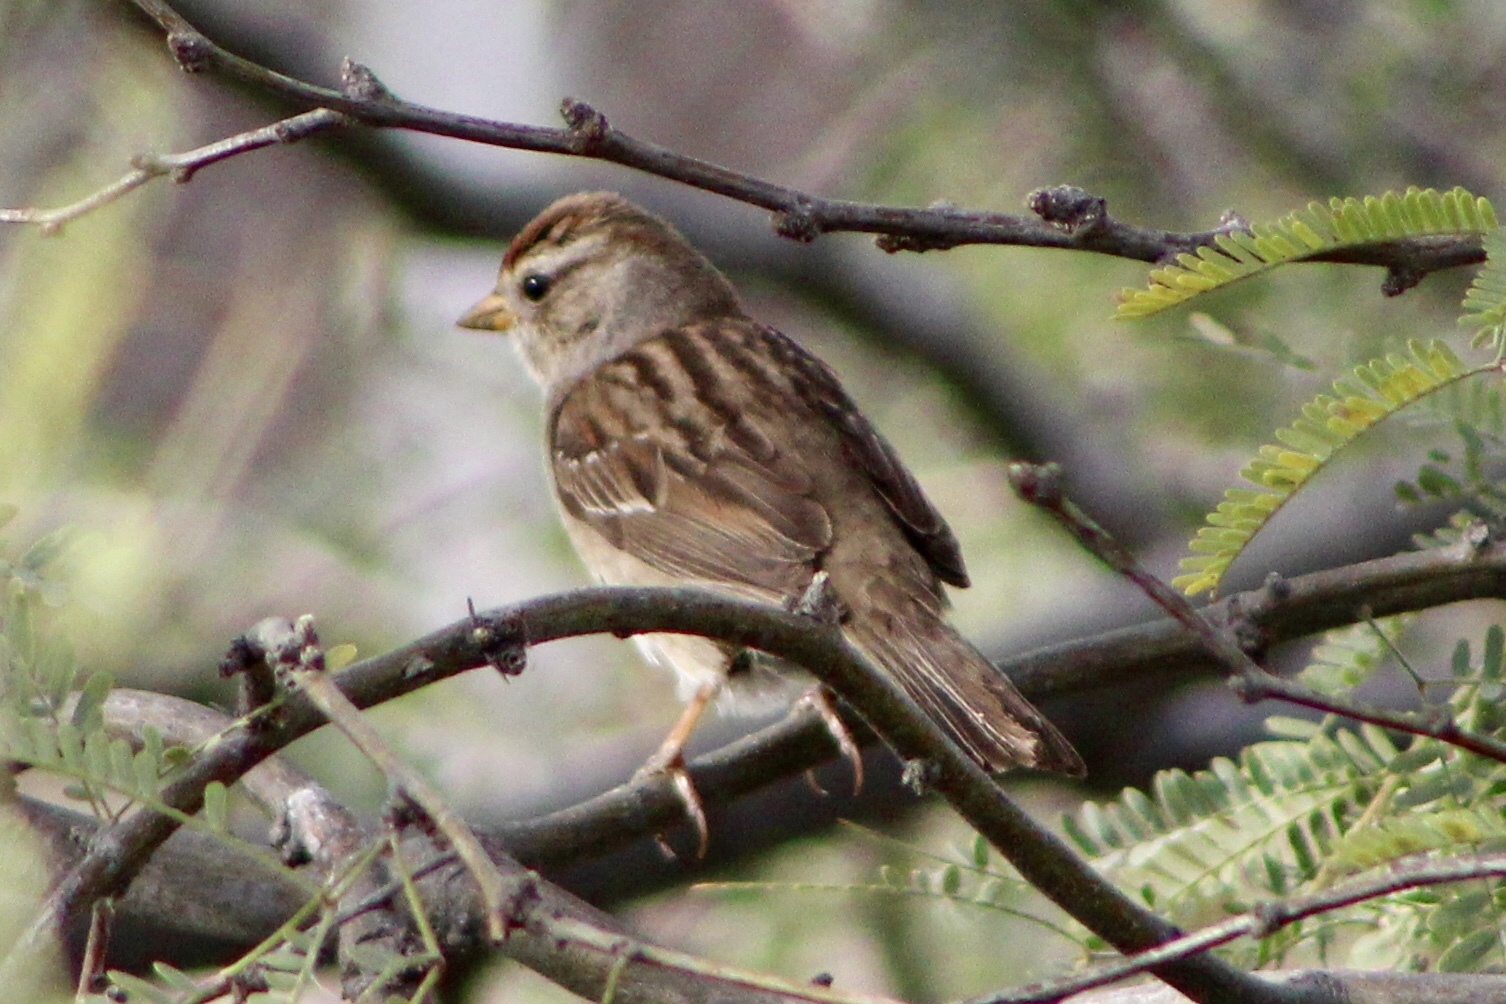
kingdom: Animalia
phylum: Chordata
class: Aves
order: Passeriformes
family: Passerellidae
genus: Zonotrichia
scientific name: Zonotrichia leucophrys
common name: White-crowned sparrow
